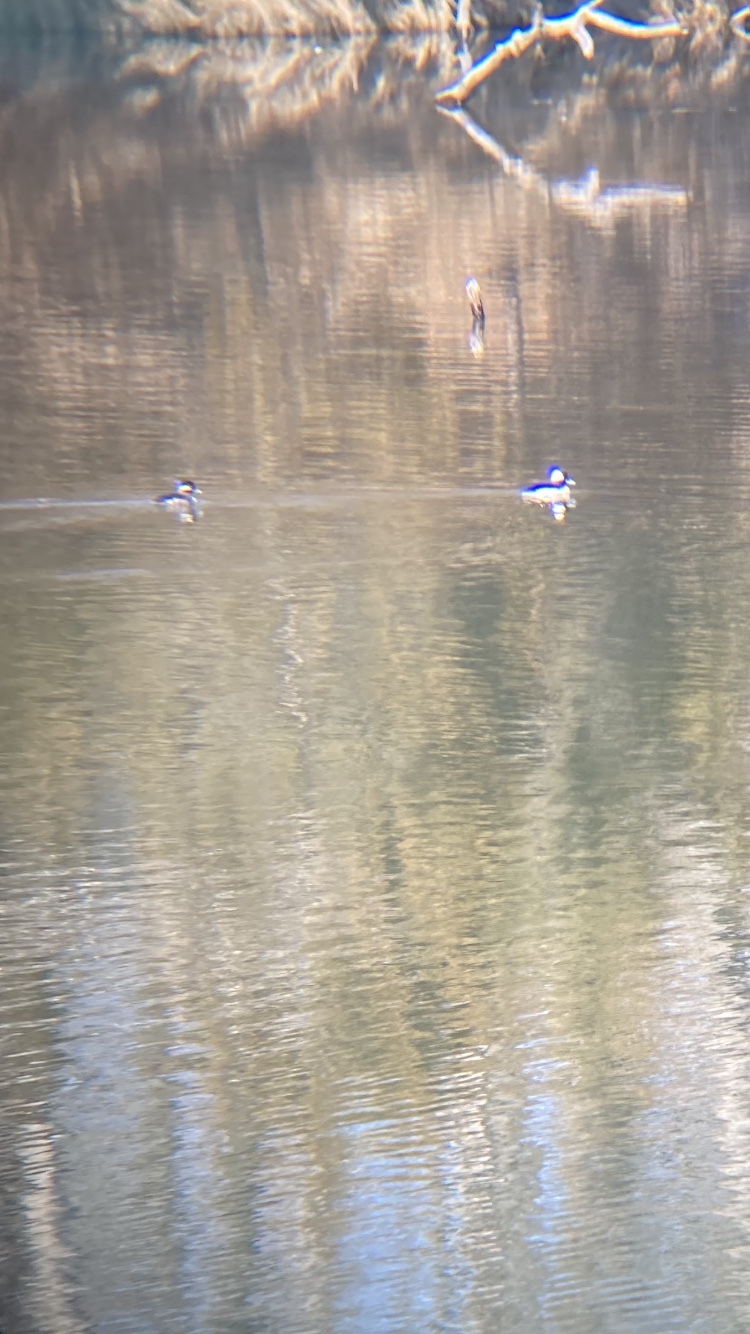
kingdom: Animalia
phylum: Chordata
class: Aves
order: Anseriformes
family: Anatidae
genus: Bucephala
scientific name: Bucephala albeola
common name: Bufflehead
